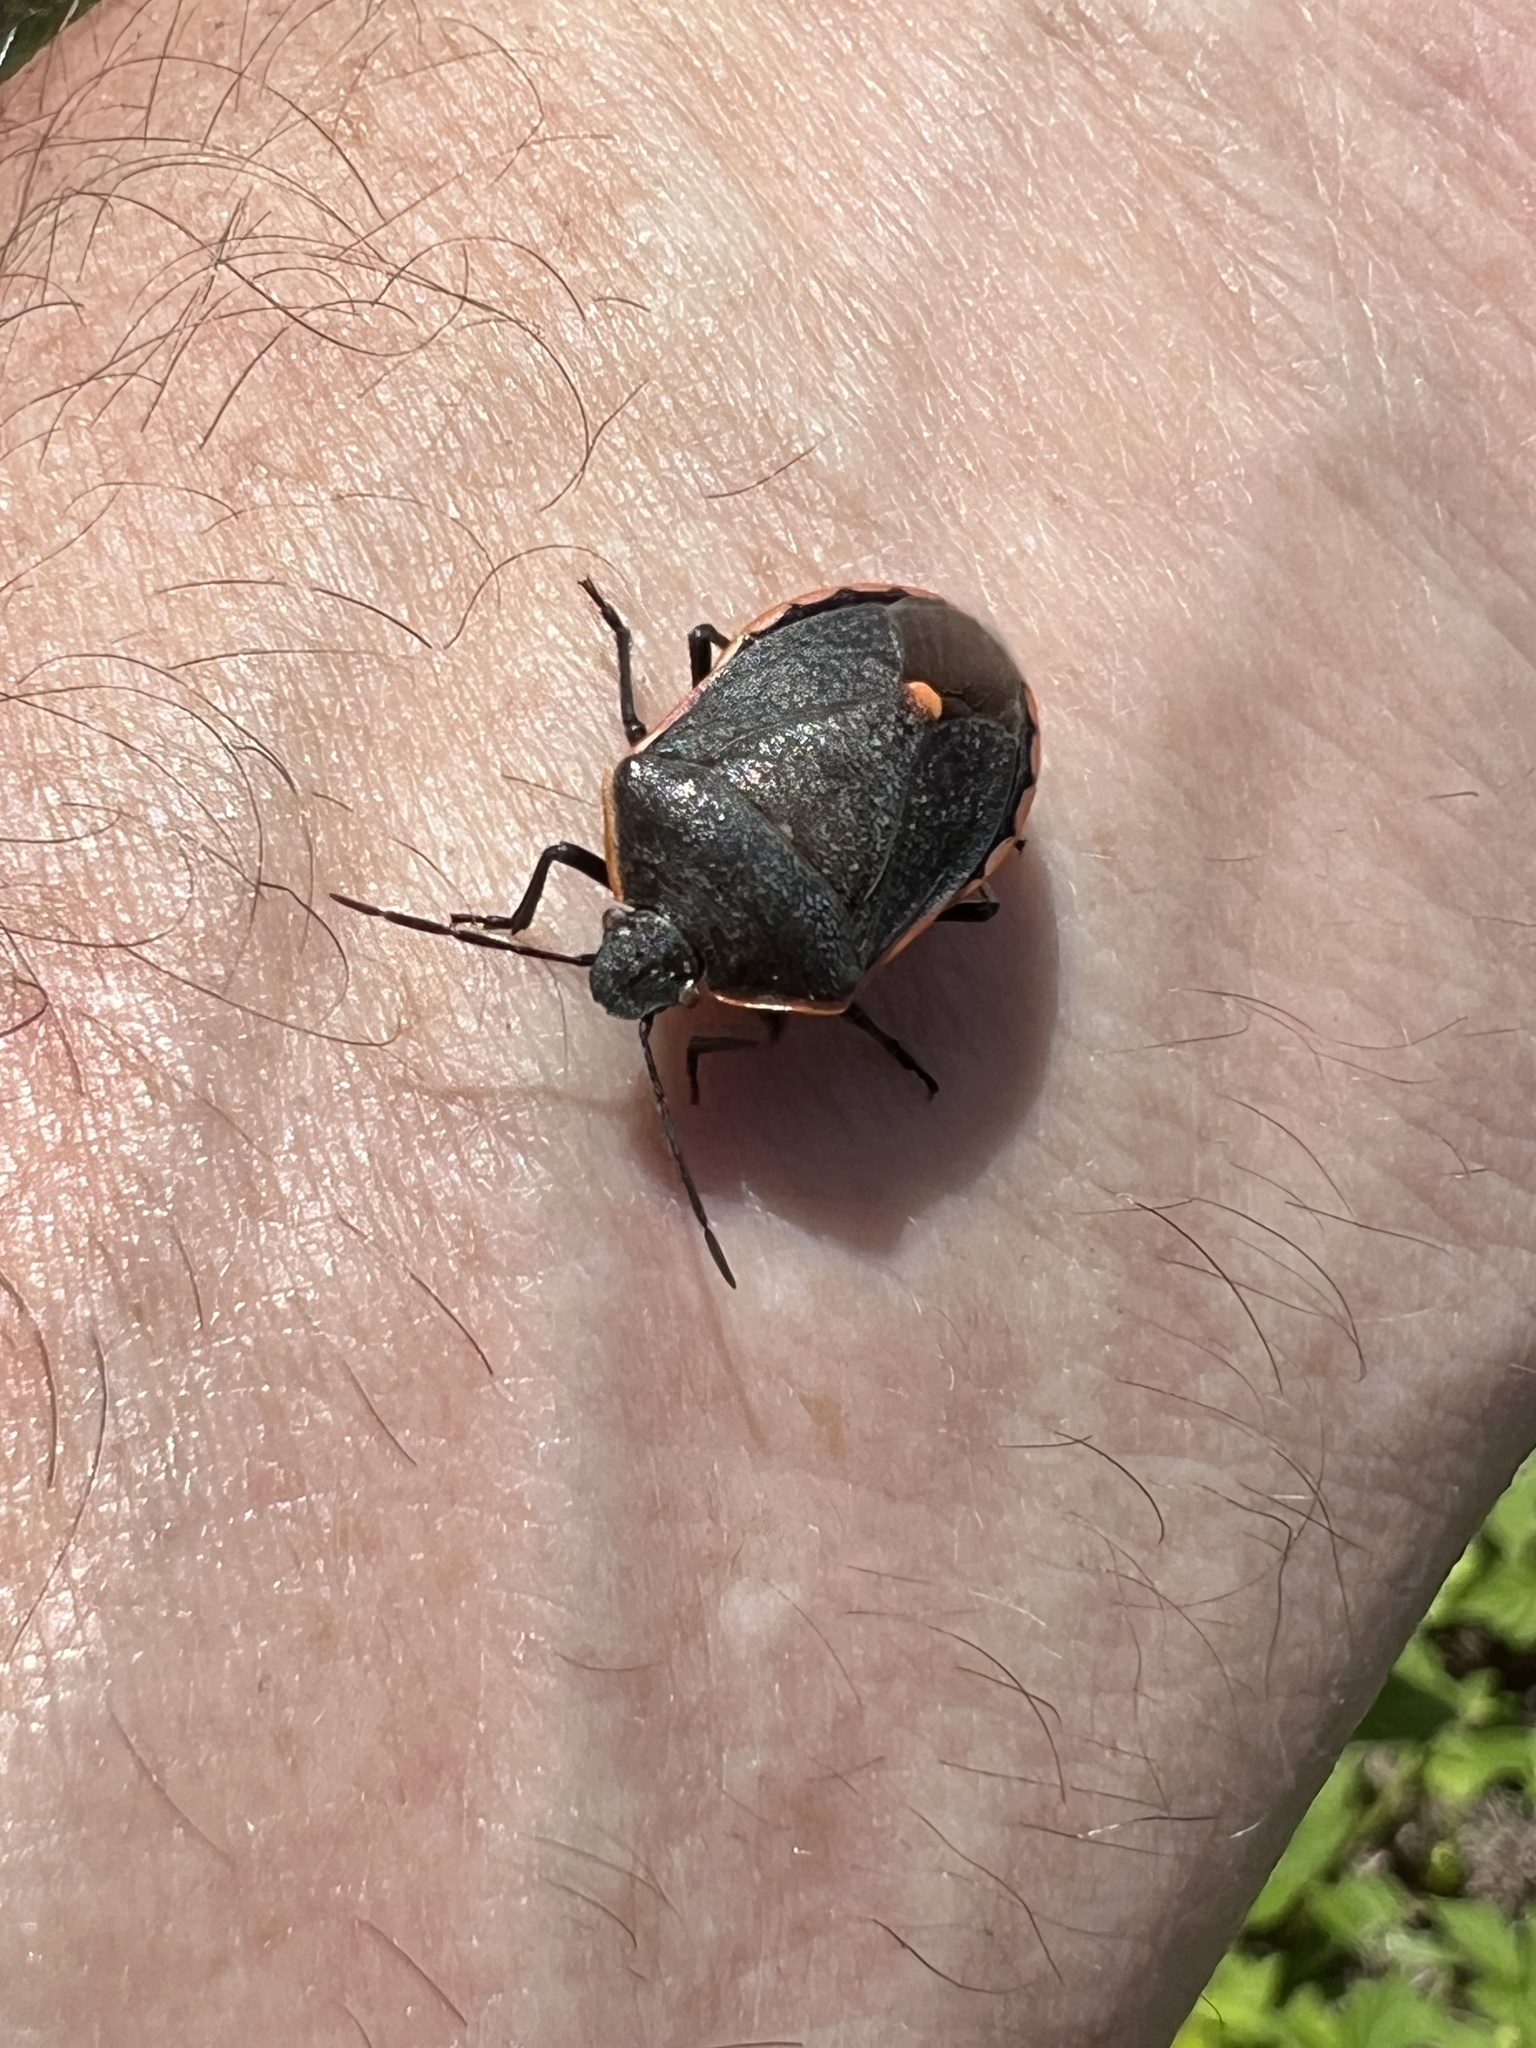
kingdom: Animalia
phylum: Arthropoda
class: Insecta
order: Hemiptera
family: Pentatomidae
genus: Chlorochroa
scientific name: Chlorochroa ligata
